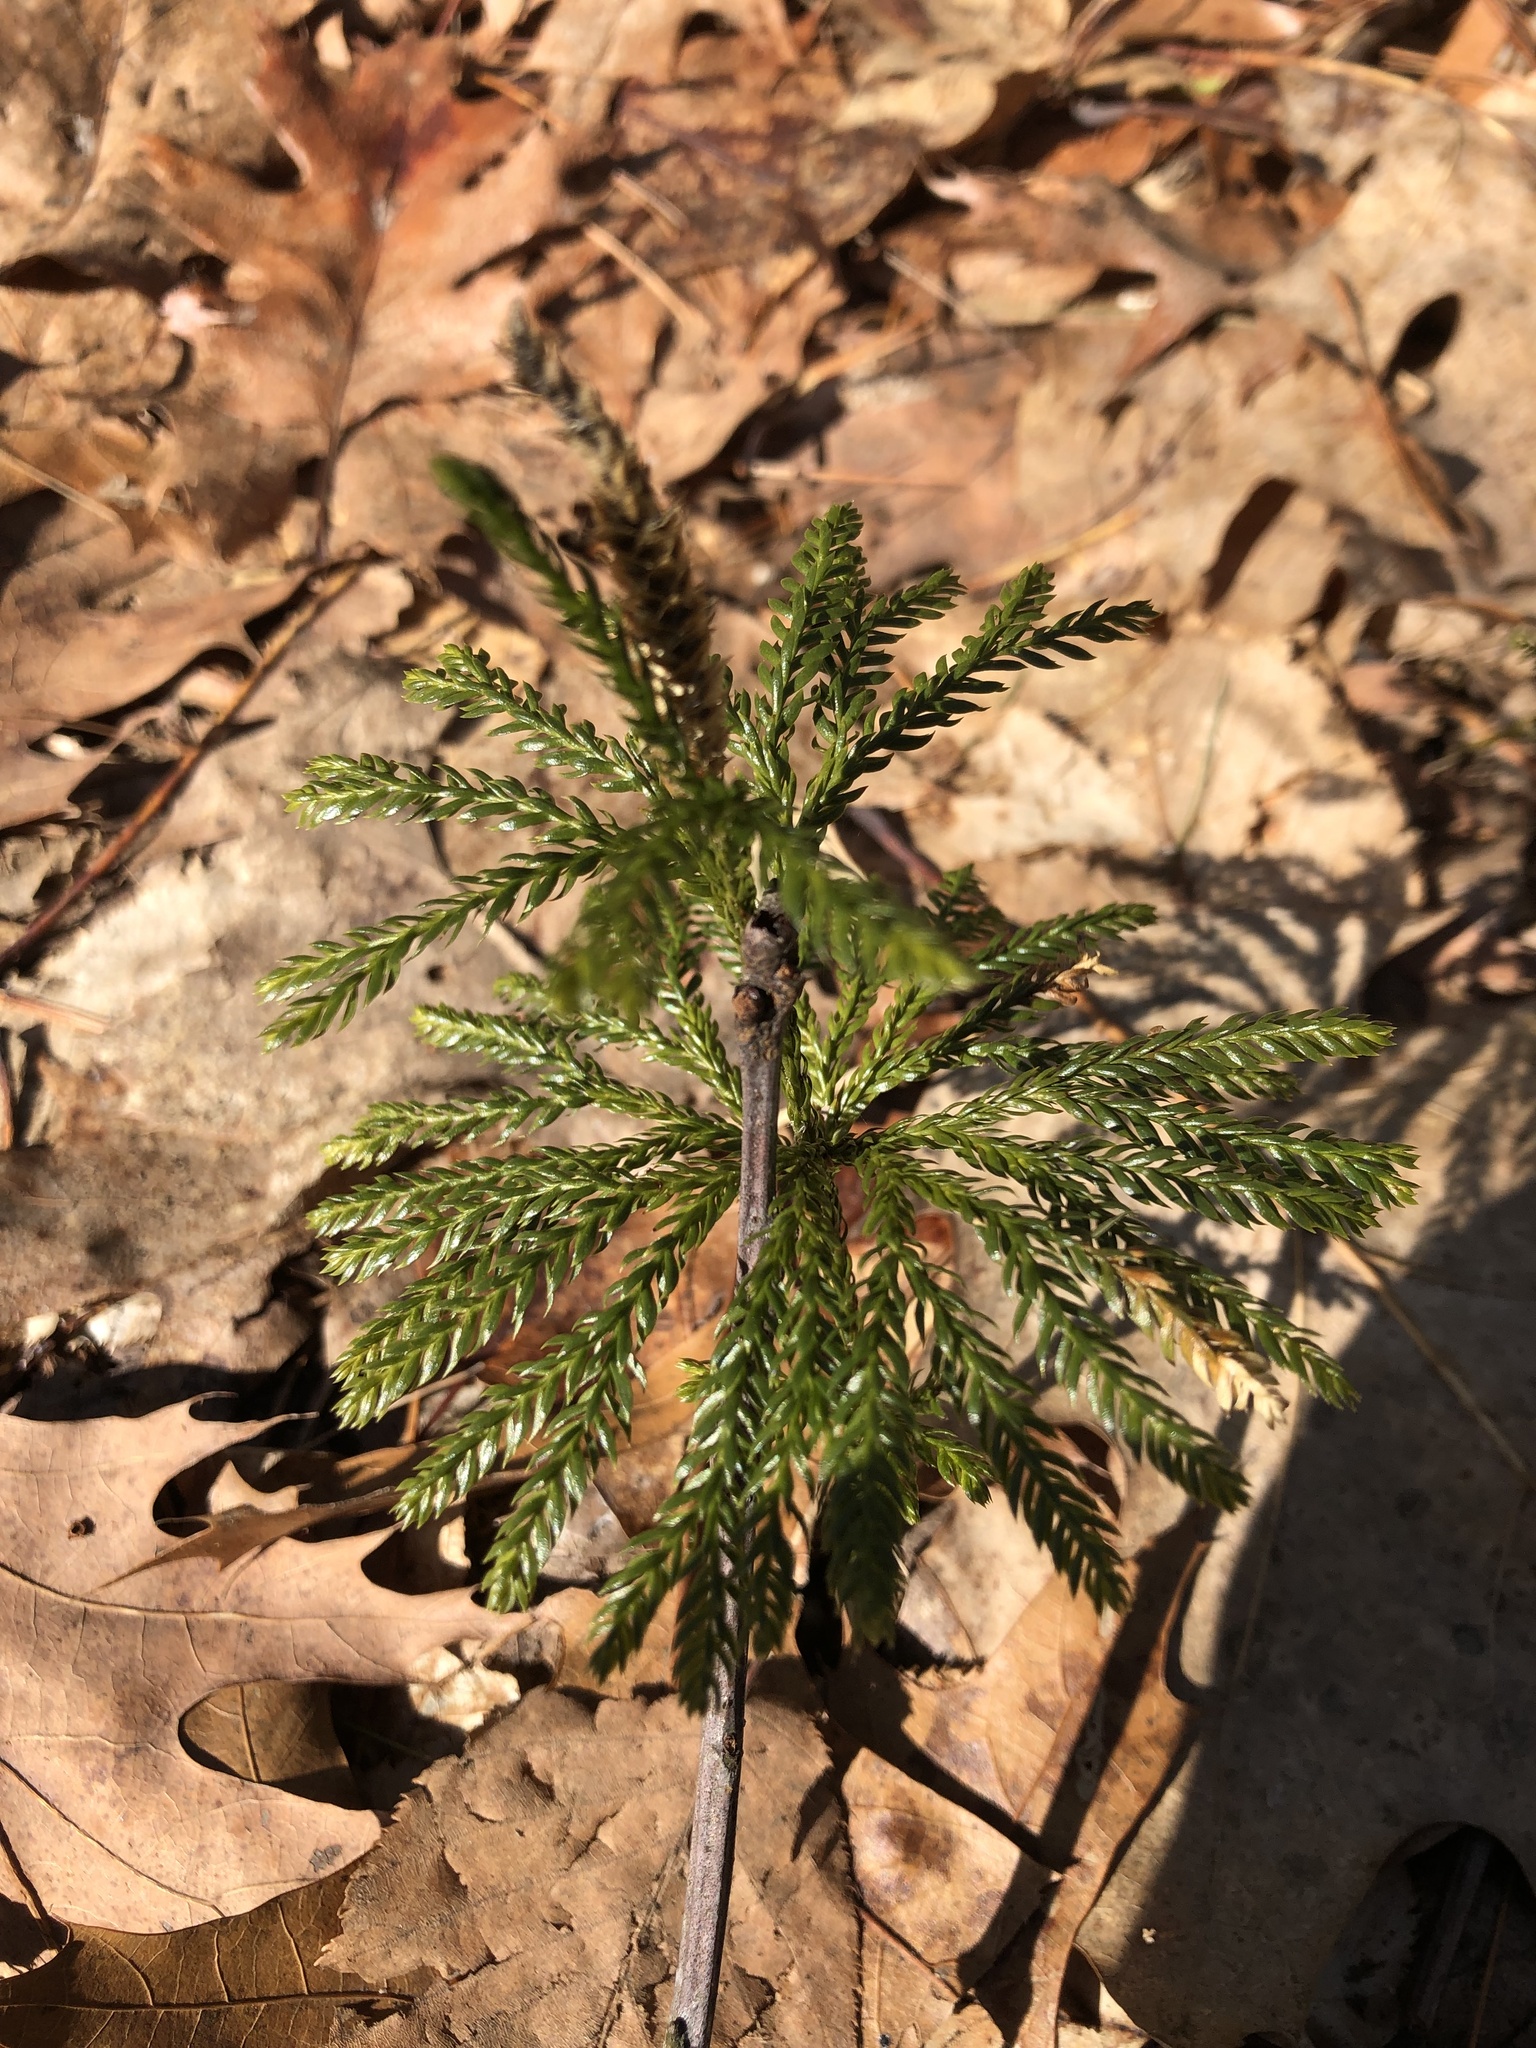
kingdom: Plantae
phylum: Tracheophyta
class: Lycopodiopsida
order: Lycopodiales
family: Lycopodiaceae
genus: Dendrolycopodium
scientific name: Dendrolycopodium obscurum
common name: Common ground-pine
